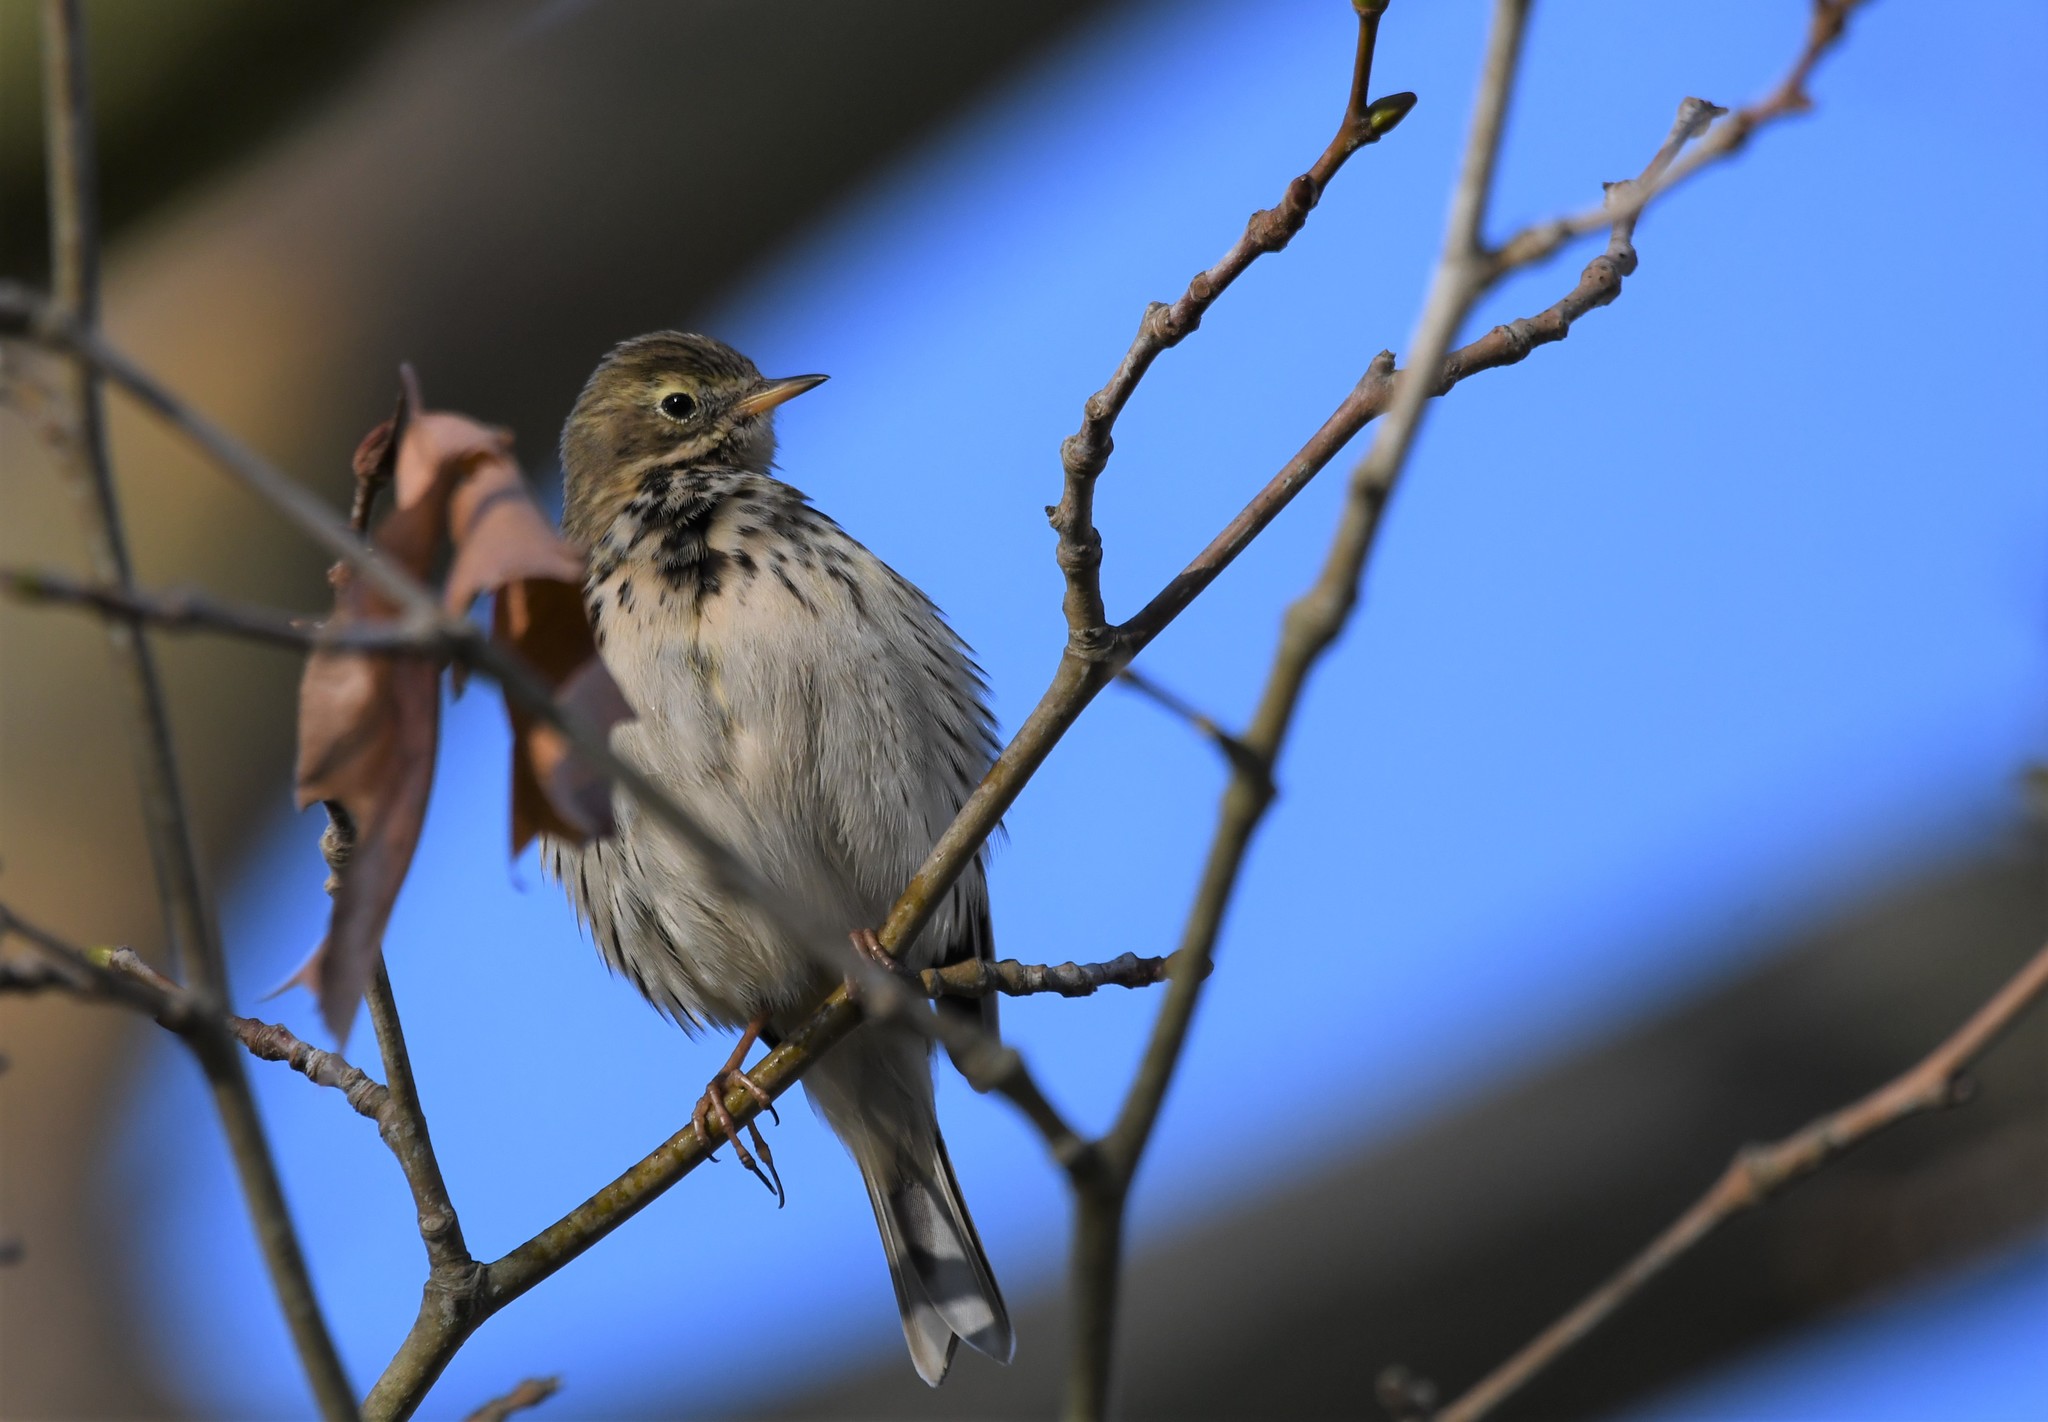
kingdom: Animalia
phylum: Chordata
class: Aves
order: Passeriformes
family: Motacillidae
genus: Anthus
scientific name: Anthus pratensis
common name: Meadow pipit
